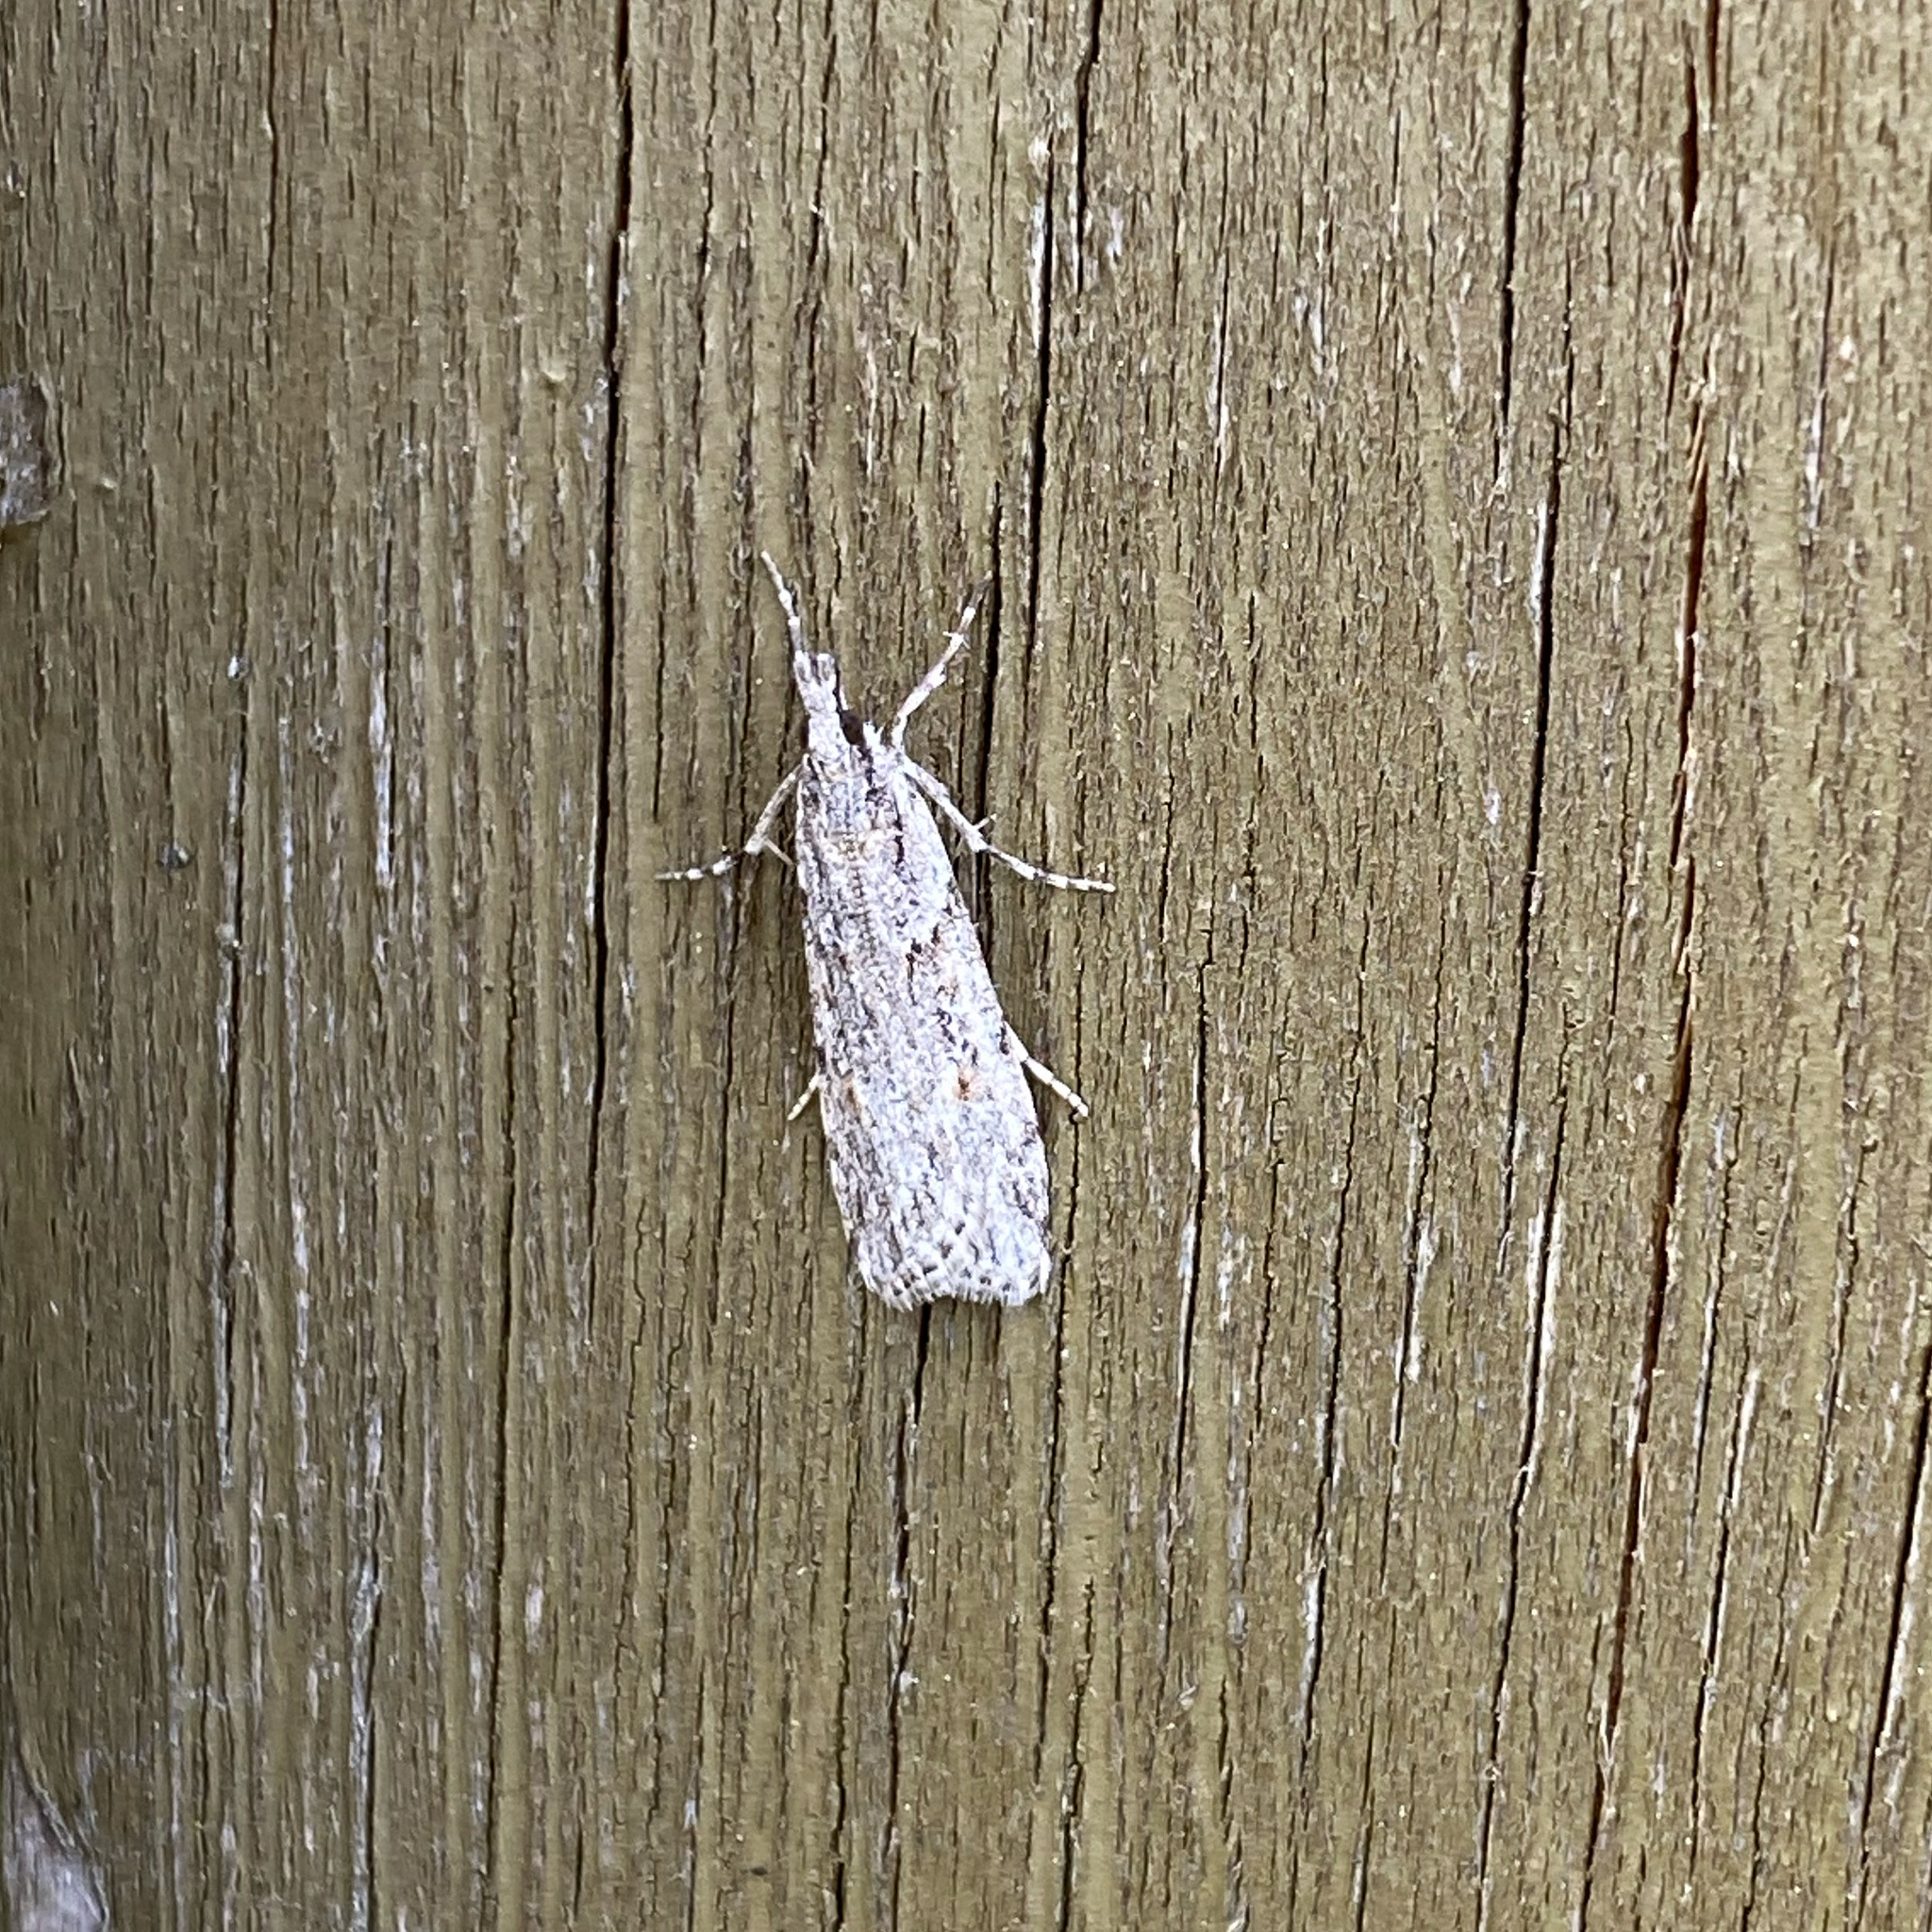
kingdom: Animalia
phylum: Arthropoda
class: Insecta
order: Lepidoptera
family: Crambidae
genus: Scoparia
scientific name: Scoparia chalicodes
